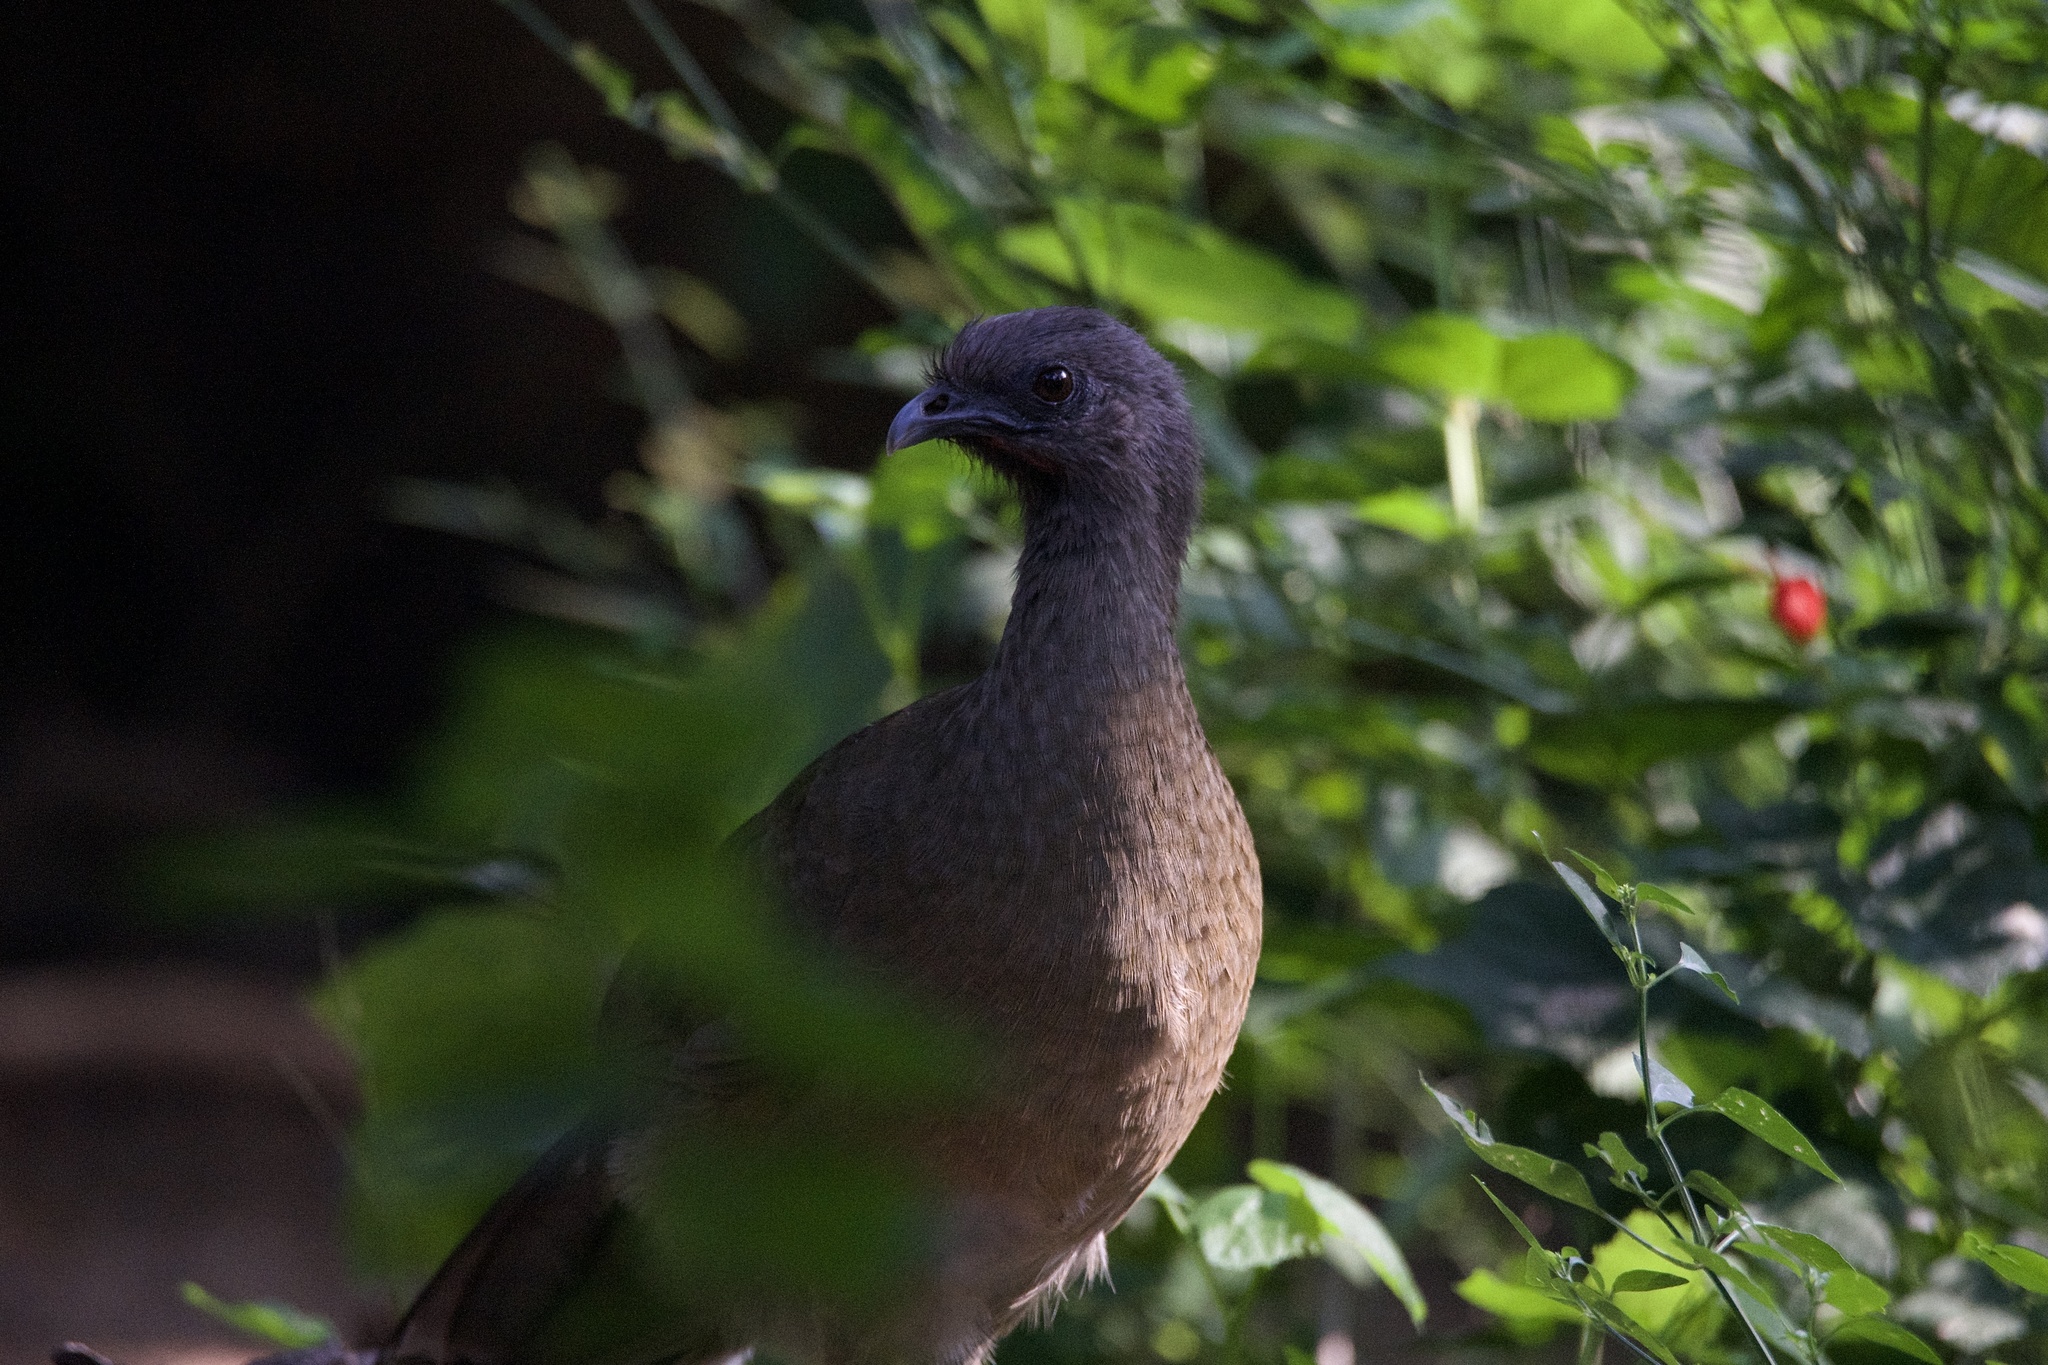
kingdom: Animalia
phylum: Chordata
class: Aves
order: Galliformes
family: Cracidae
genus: Ortalis
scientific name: Ortalis vetula
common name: Plain chachalaca
